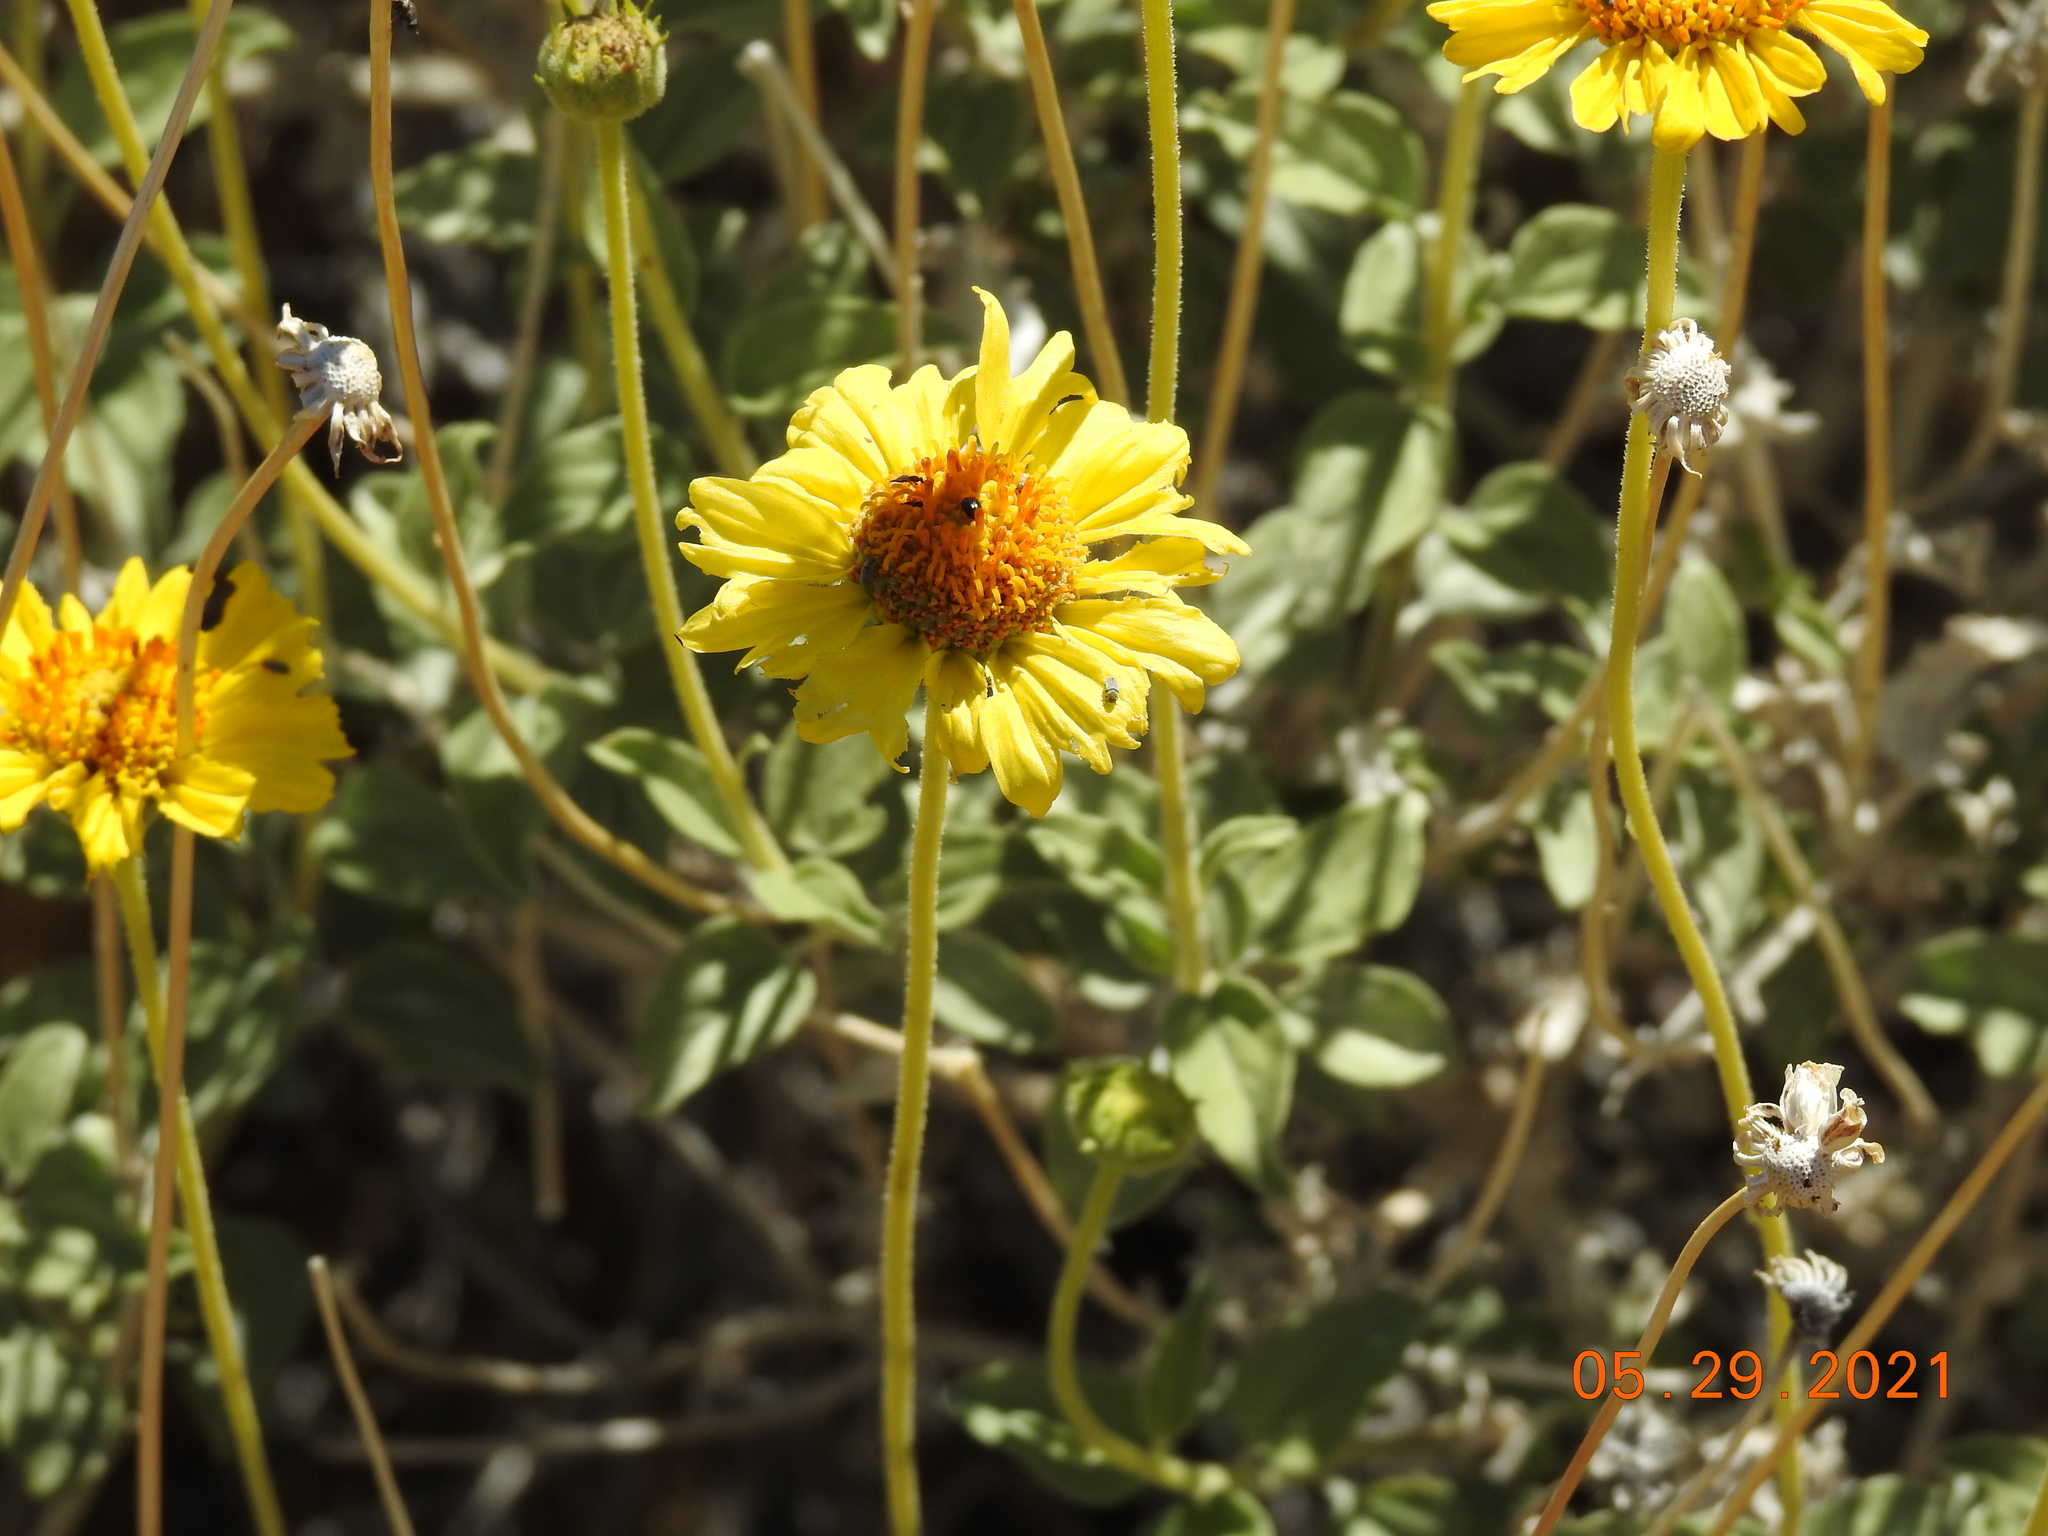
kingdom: Plantae
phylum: Tracheophyta
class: Magnoliopsida
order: Asterales
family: Asteraceae
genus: Encelia
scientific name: Encelia actoni
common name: Acton encelia
